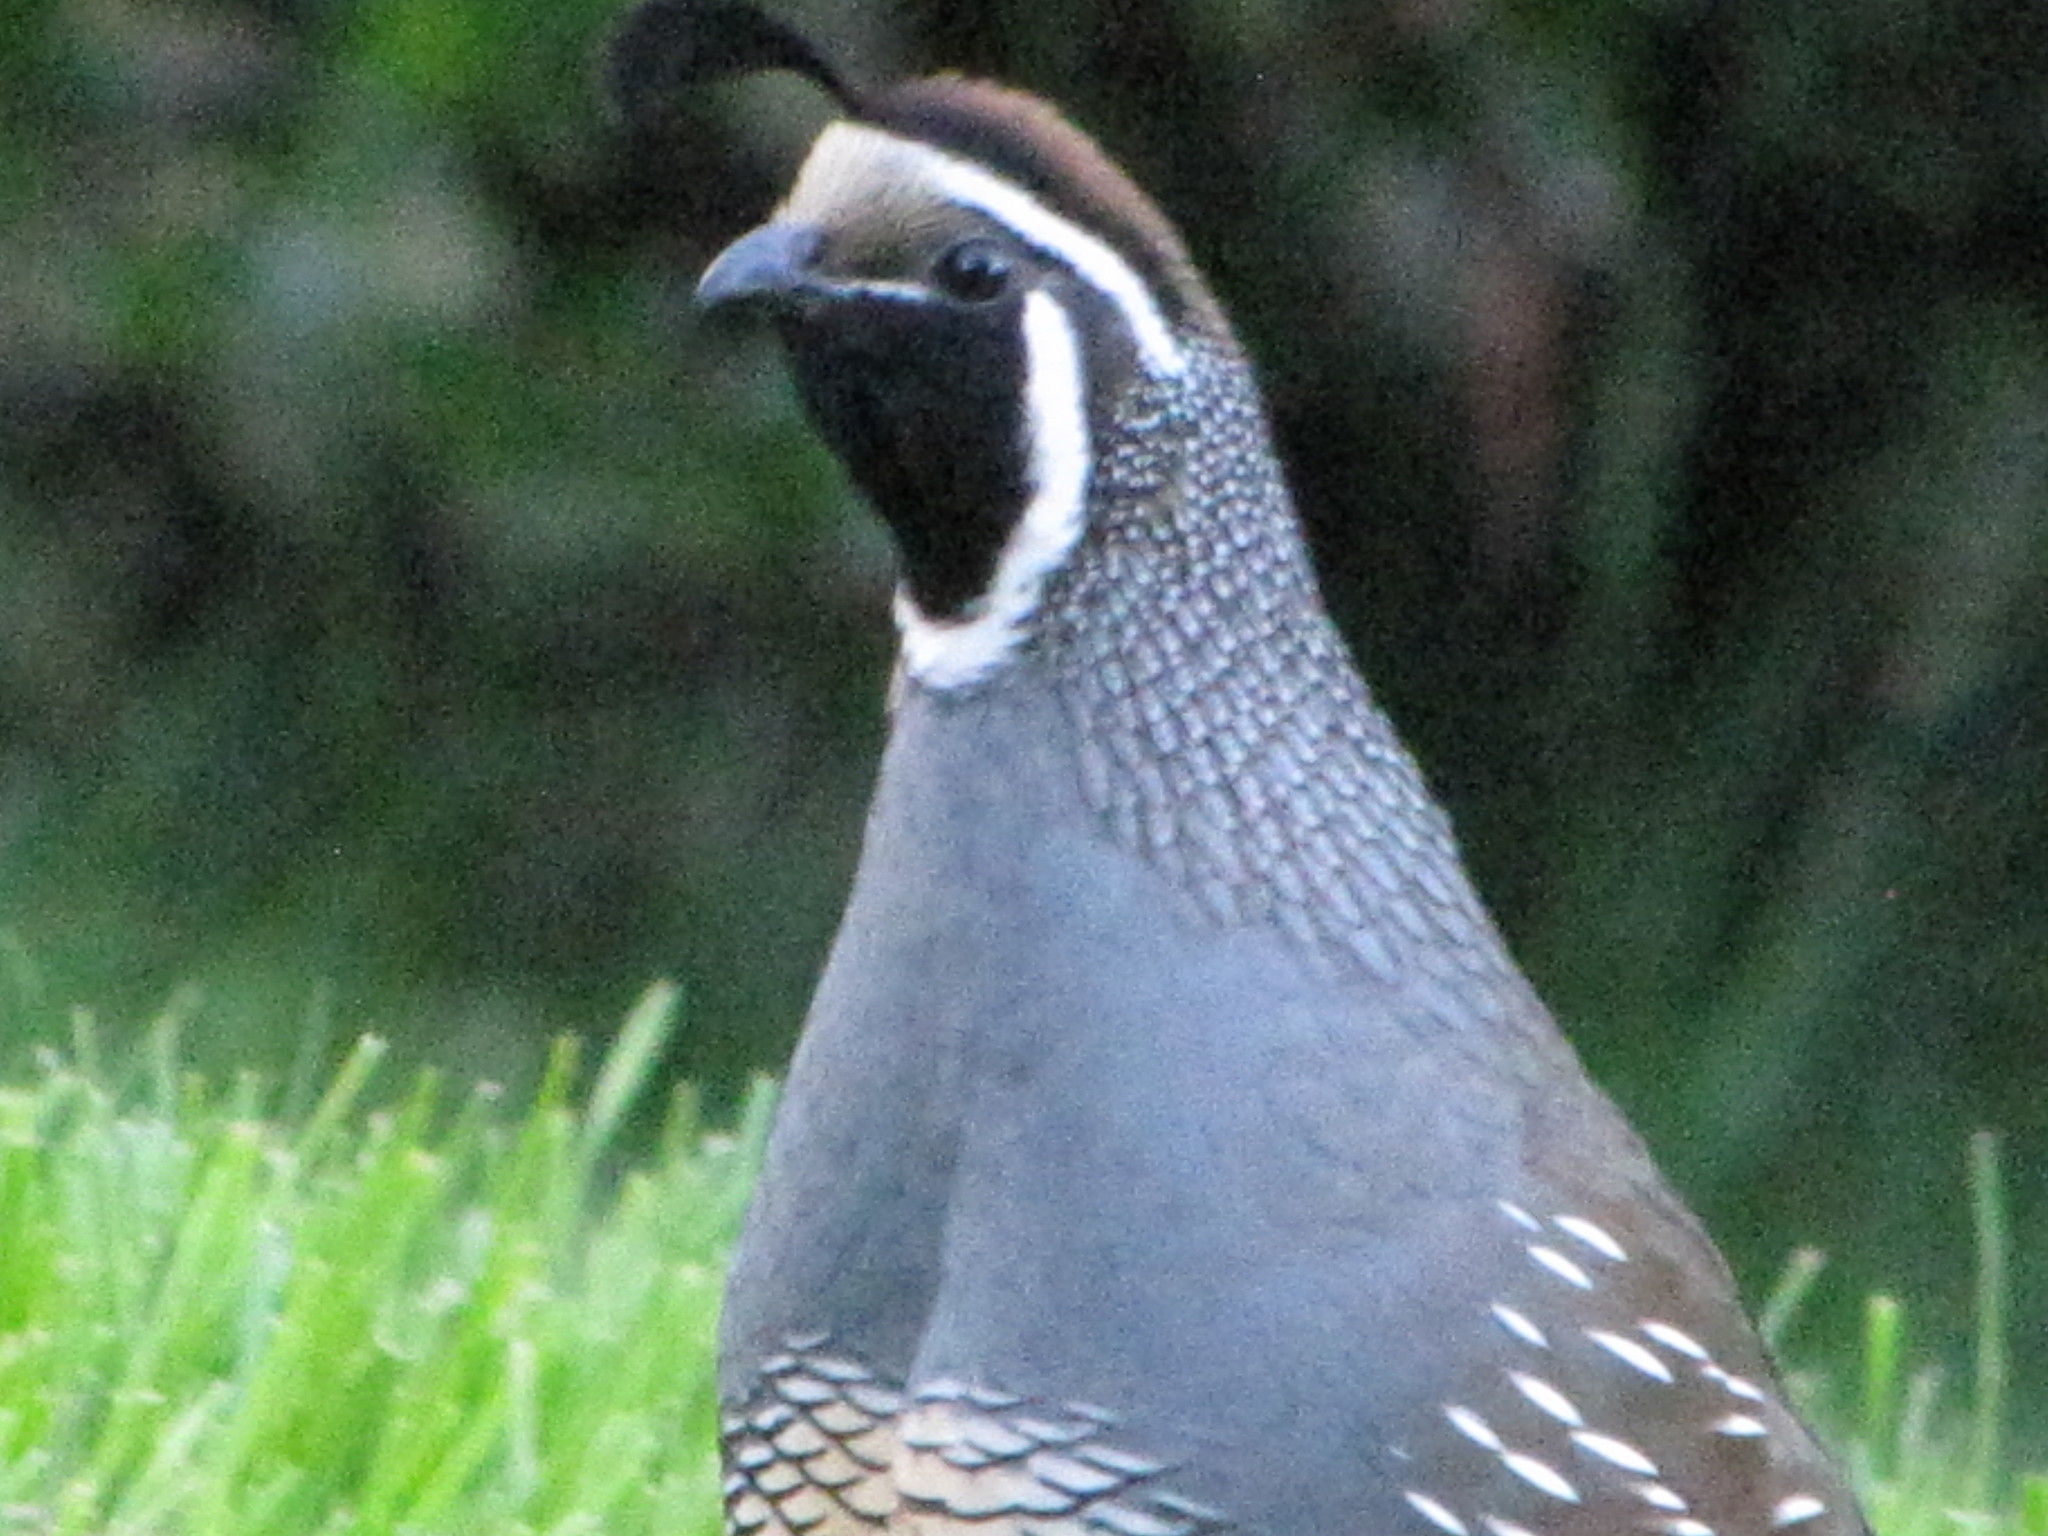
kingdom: Animalia
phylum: Chordata
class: Aves
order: Galliformes
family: Odontophoridae
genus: Callipepla
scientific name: Callipepla californica
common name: California quail
